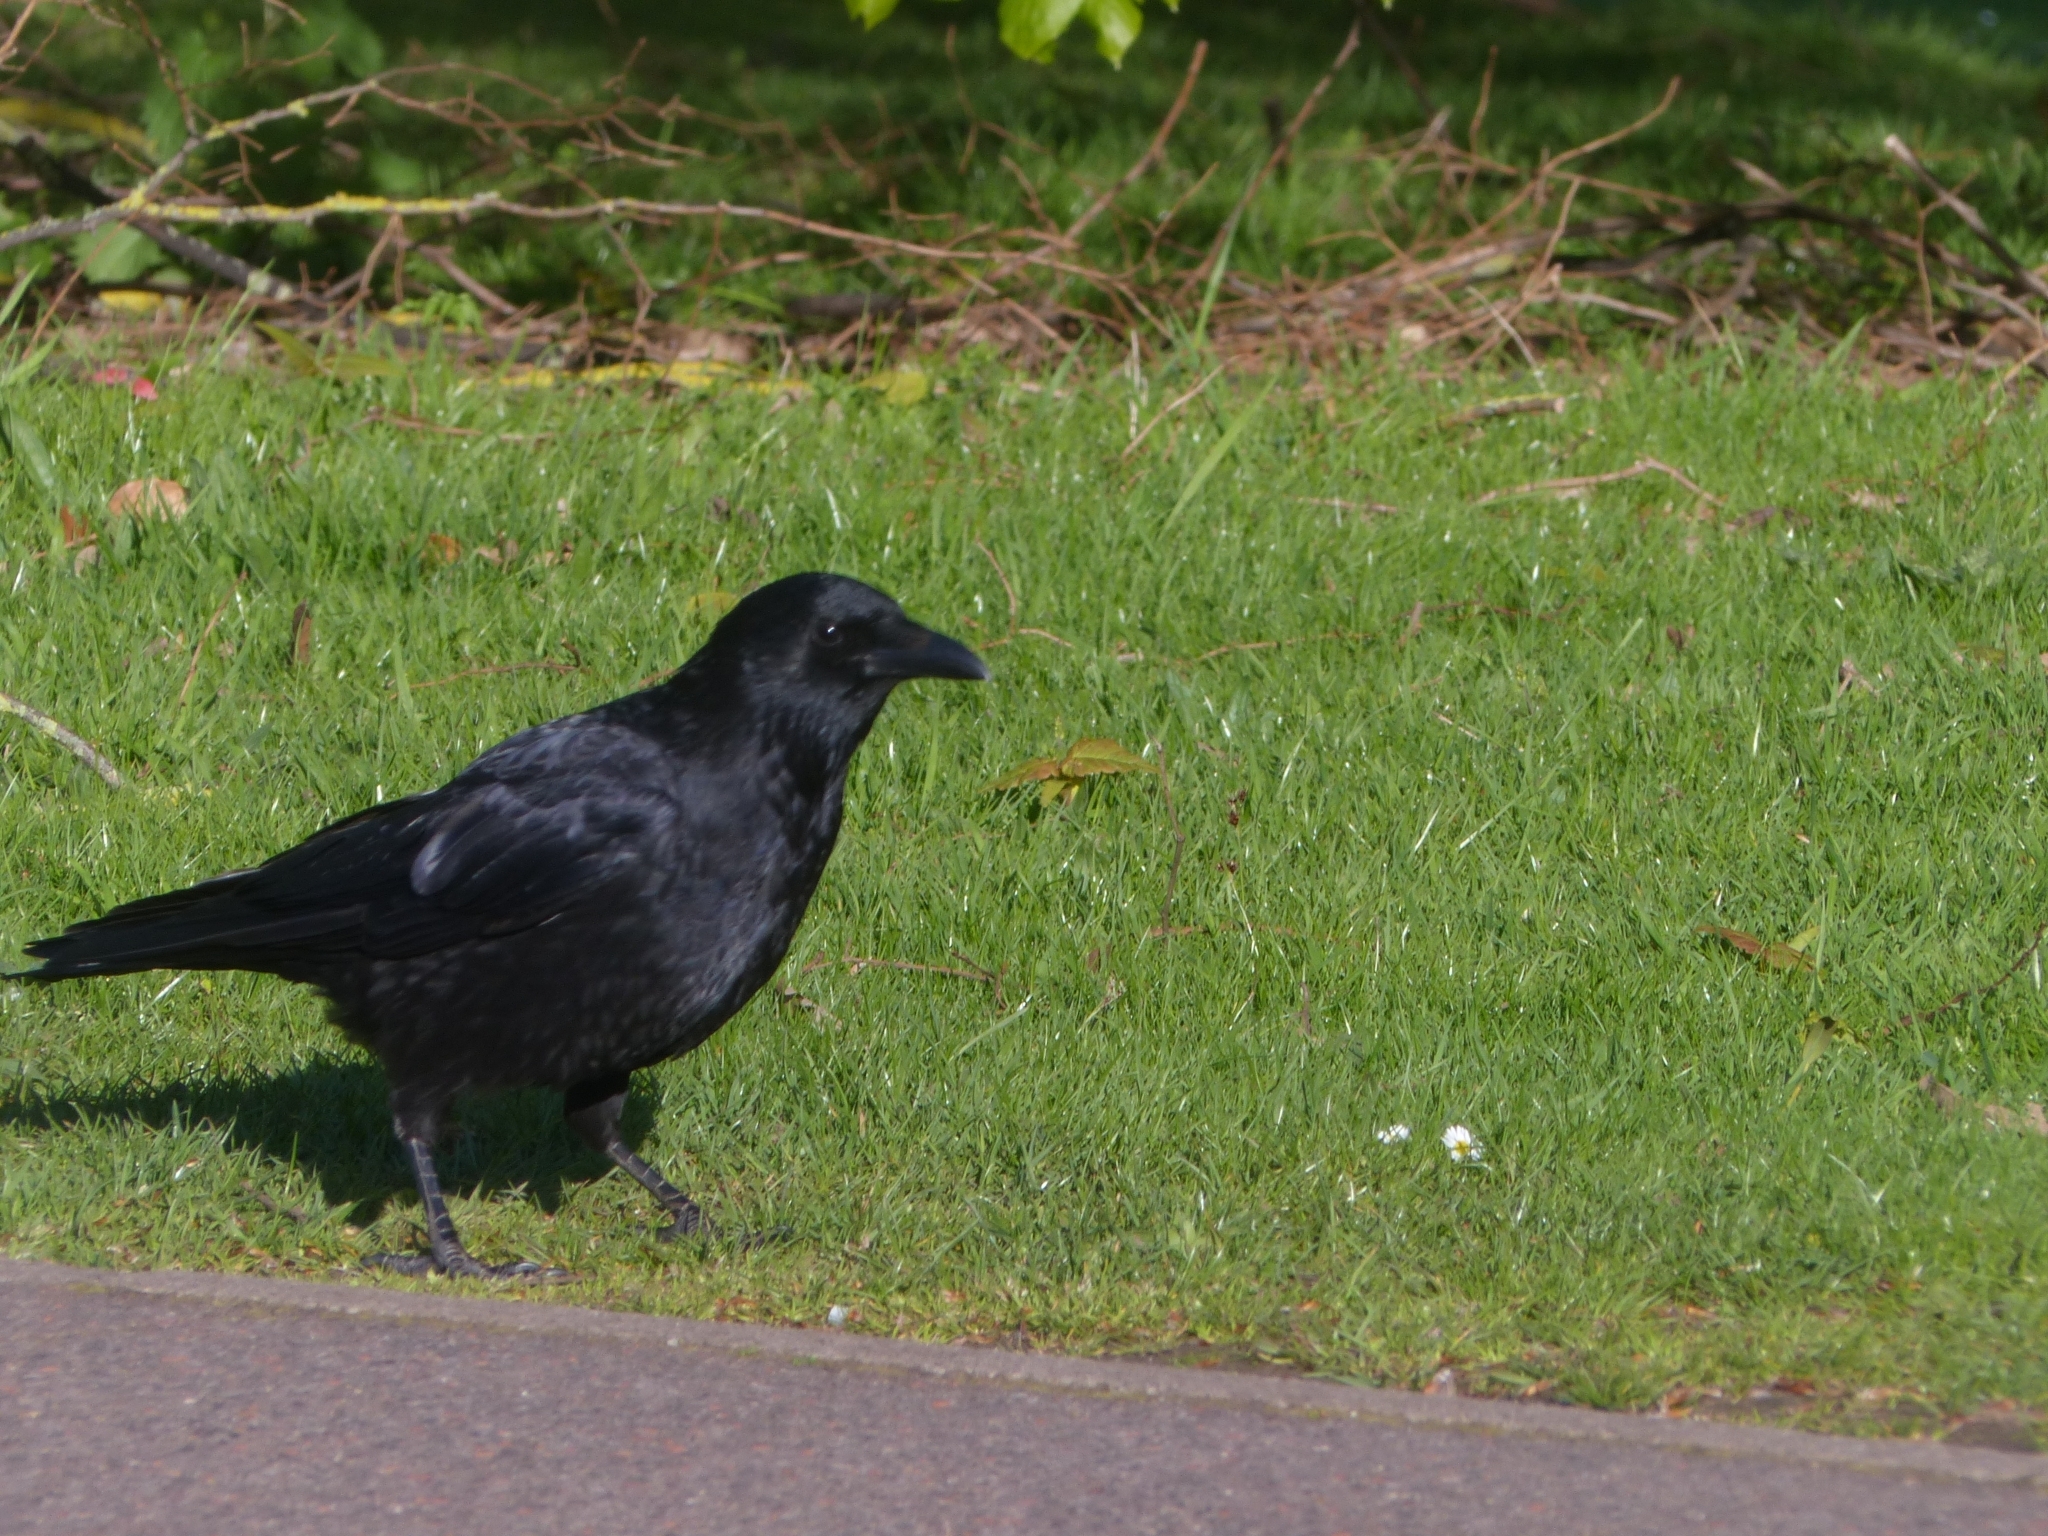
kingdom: Animalia
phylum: Chordata
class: Aves
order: Passeriformes
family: Corvidae
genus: Corvus
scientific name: Corvus corone
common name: Carrion crow
